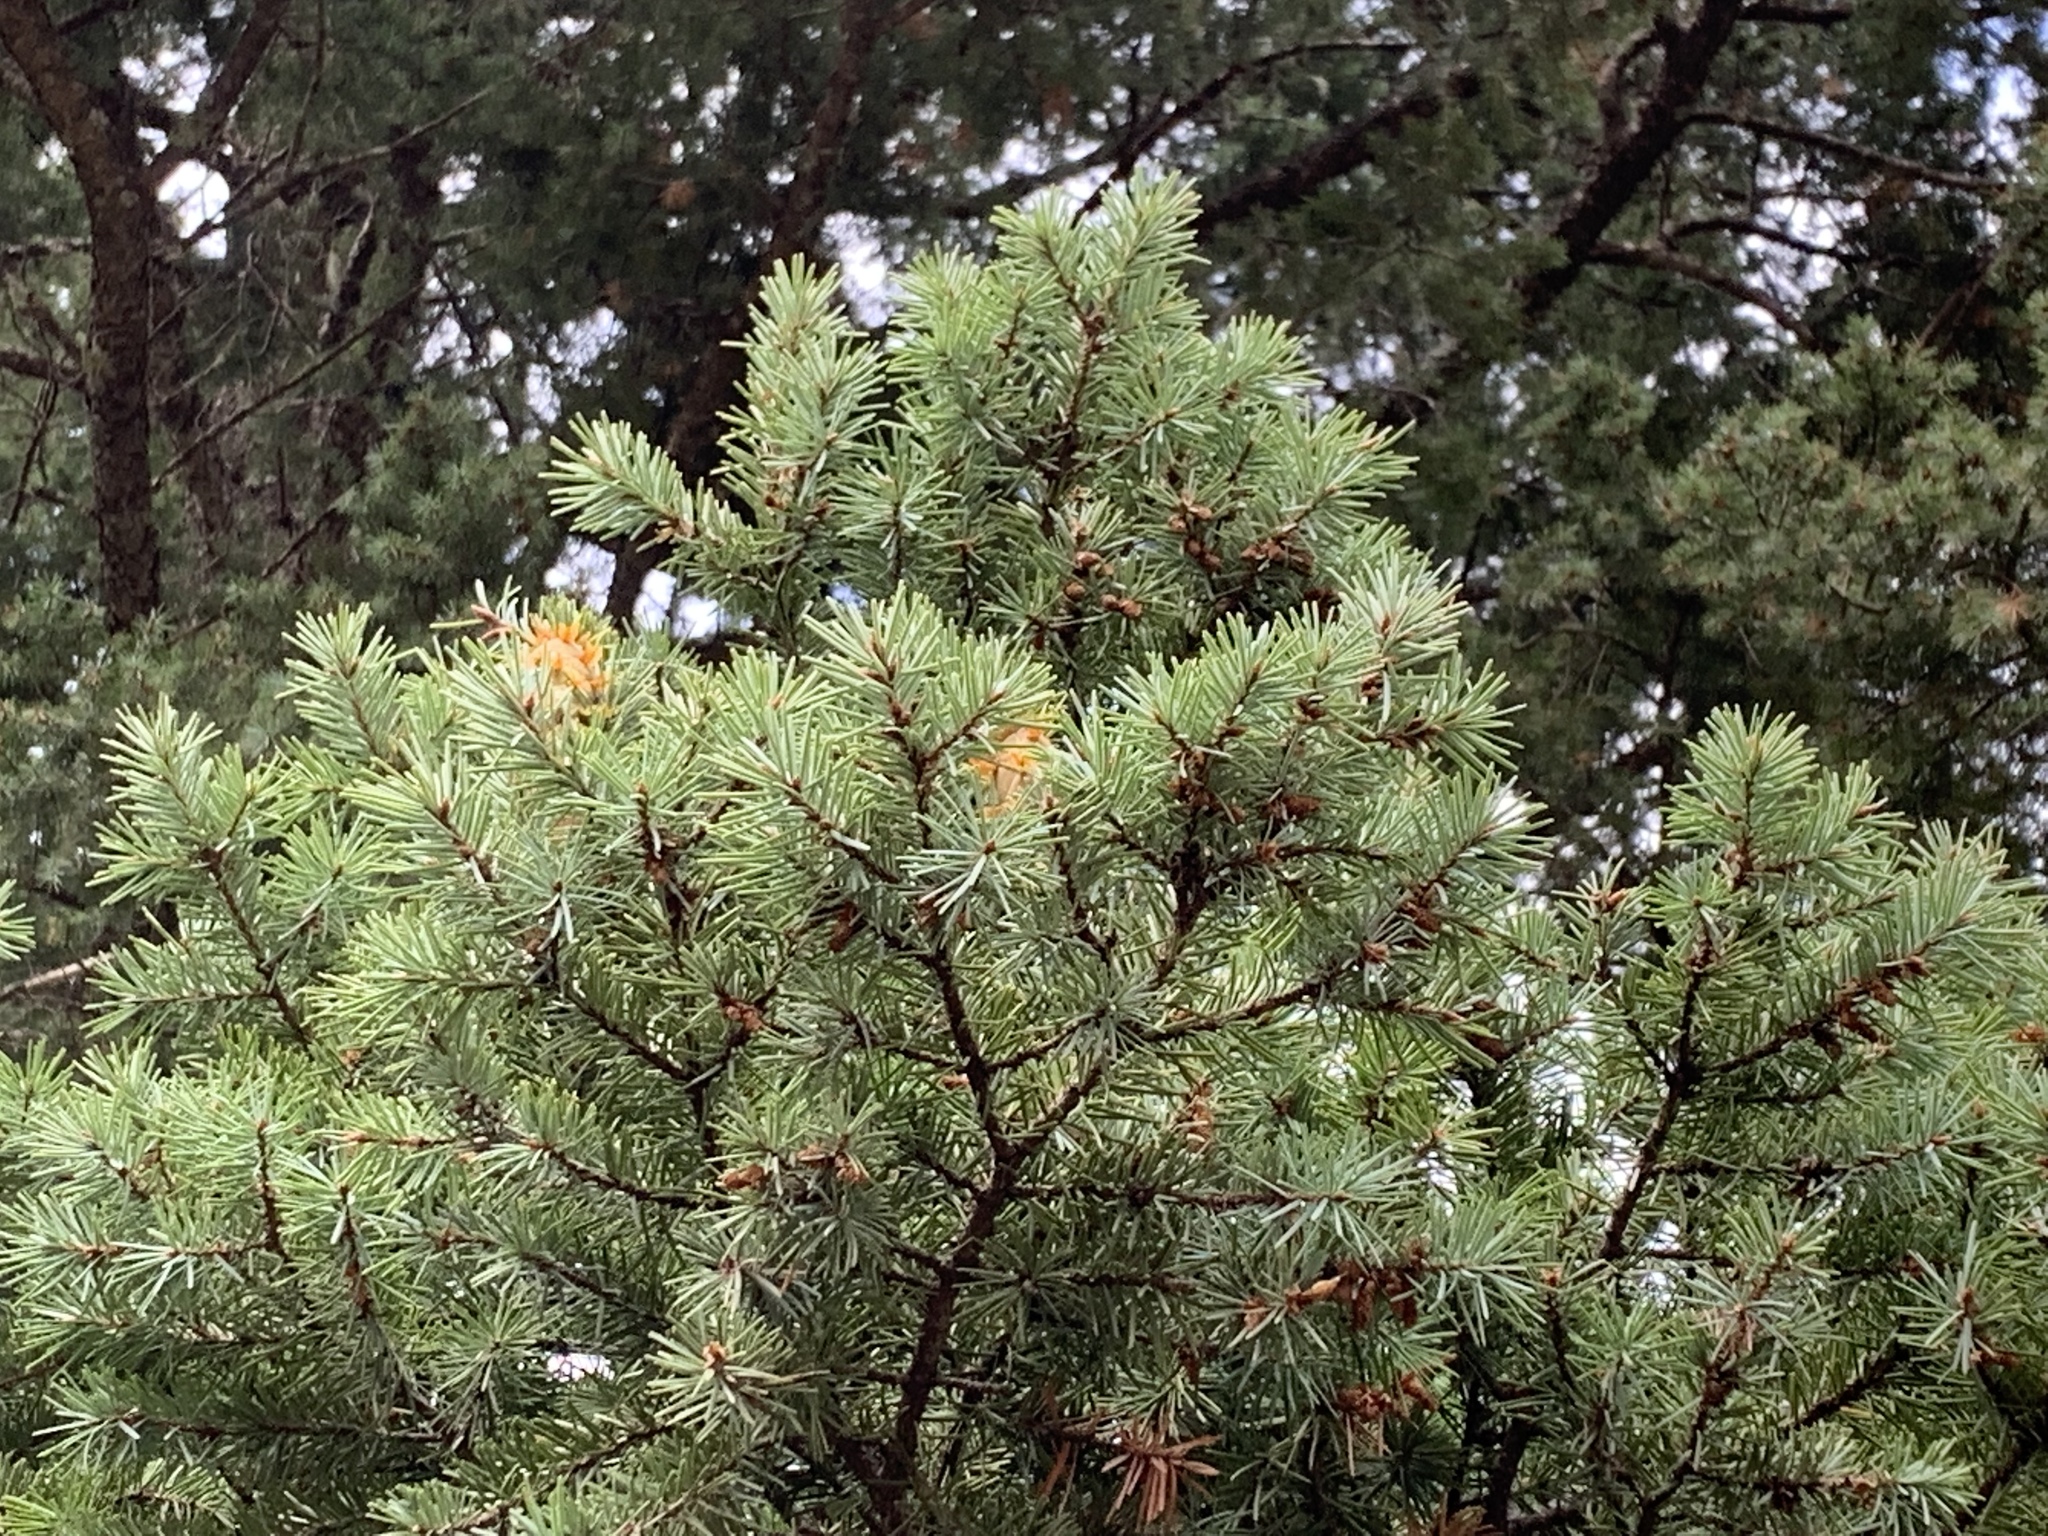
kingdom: Plantae
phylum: Tracheophyta
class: Pinopsida
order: Pinales
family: Pinaceae
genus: Pseudotsuga
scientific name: Pseudotsuga menziesii
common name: Douglas fir
